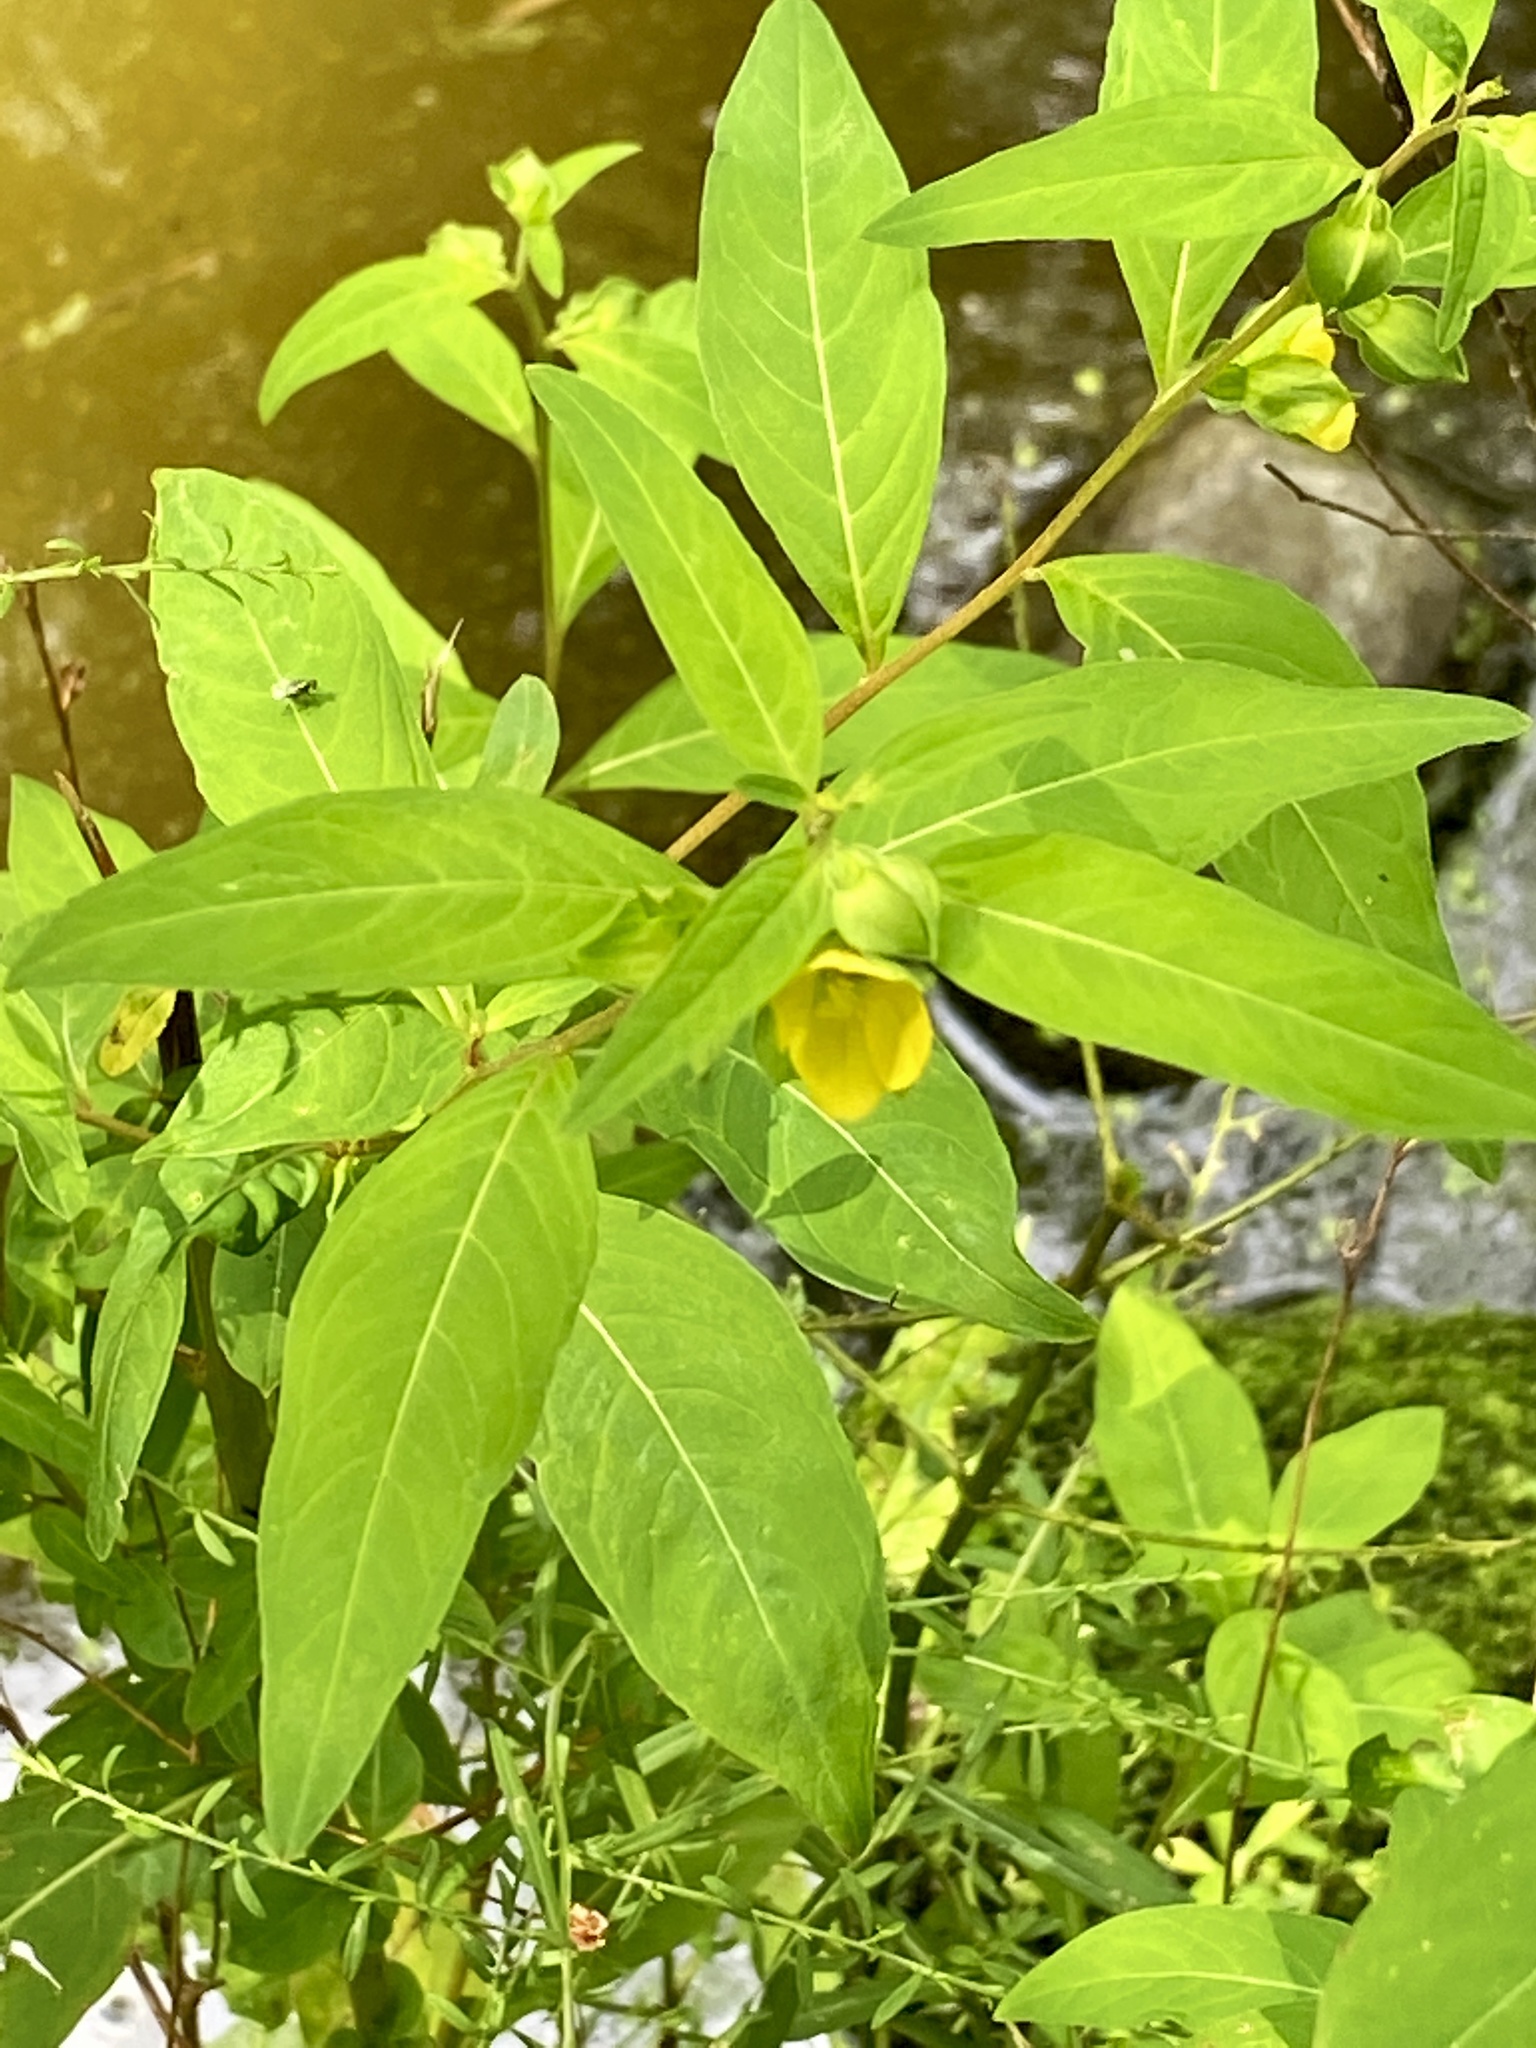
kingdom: Plantae
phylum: Tracheophyta
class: Magnoliopsida
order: Myrtales
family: Onagraceae
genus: Ludwigia
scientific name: Ludwigia alternifolia
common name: Rattlebox
